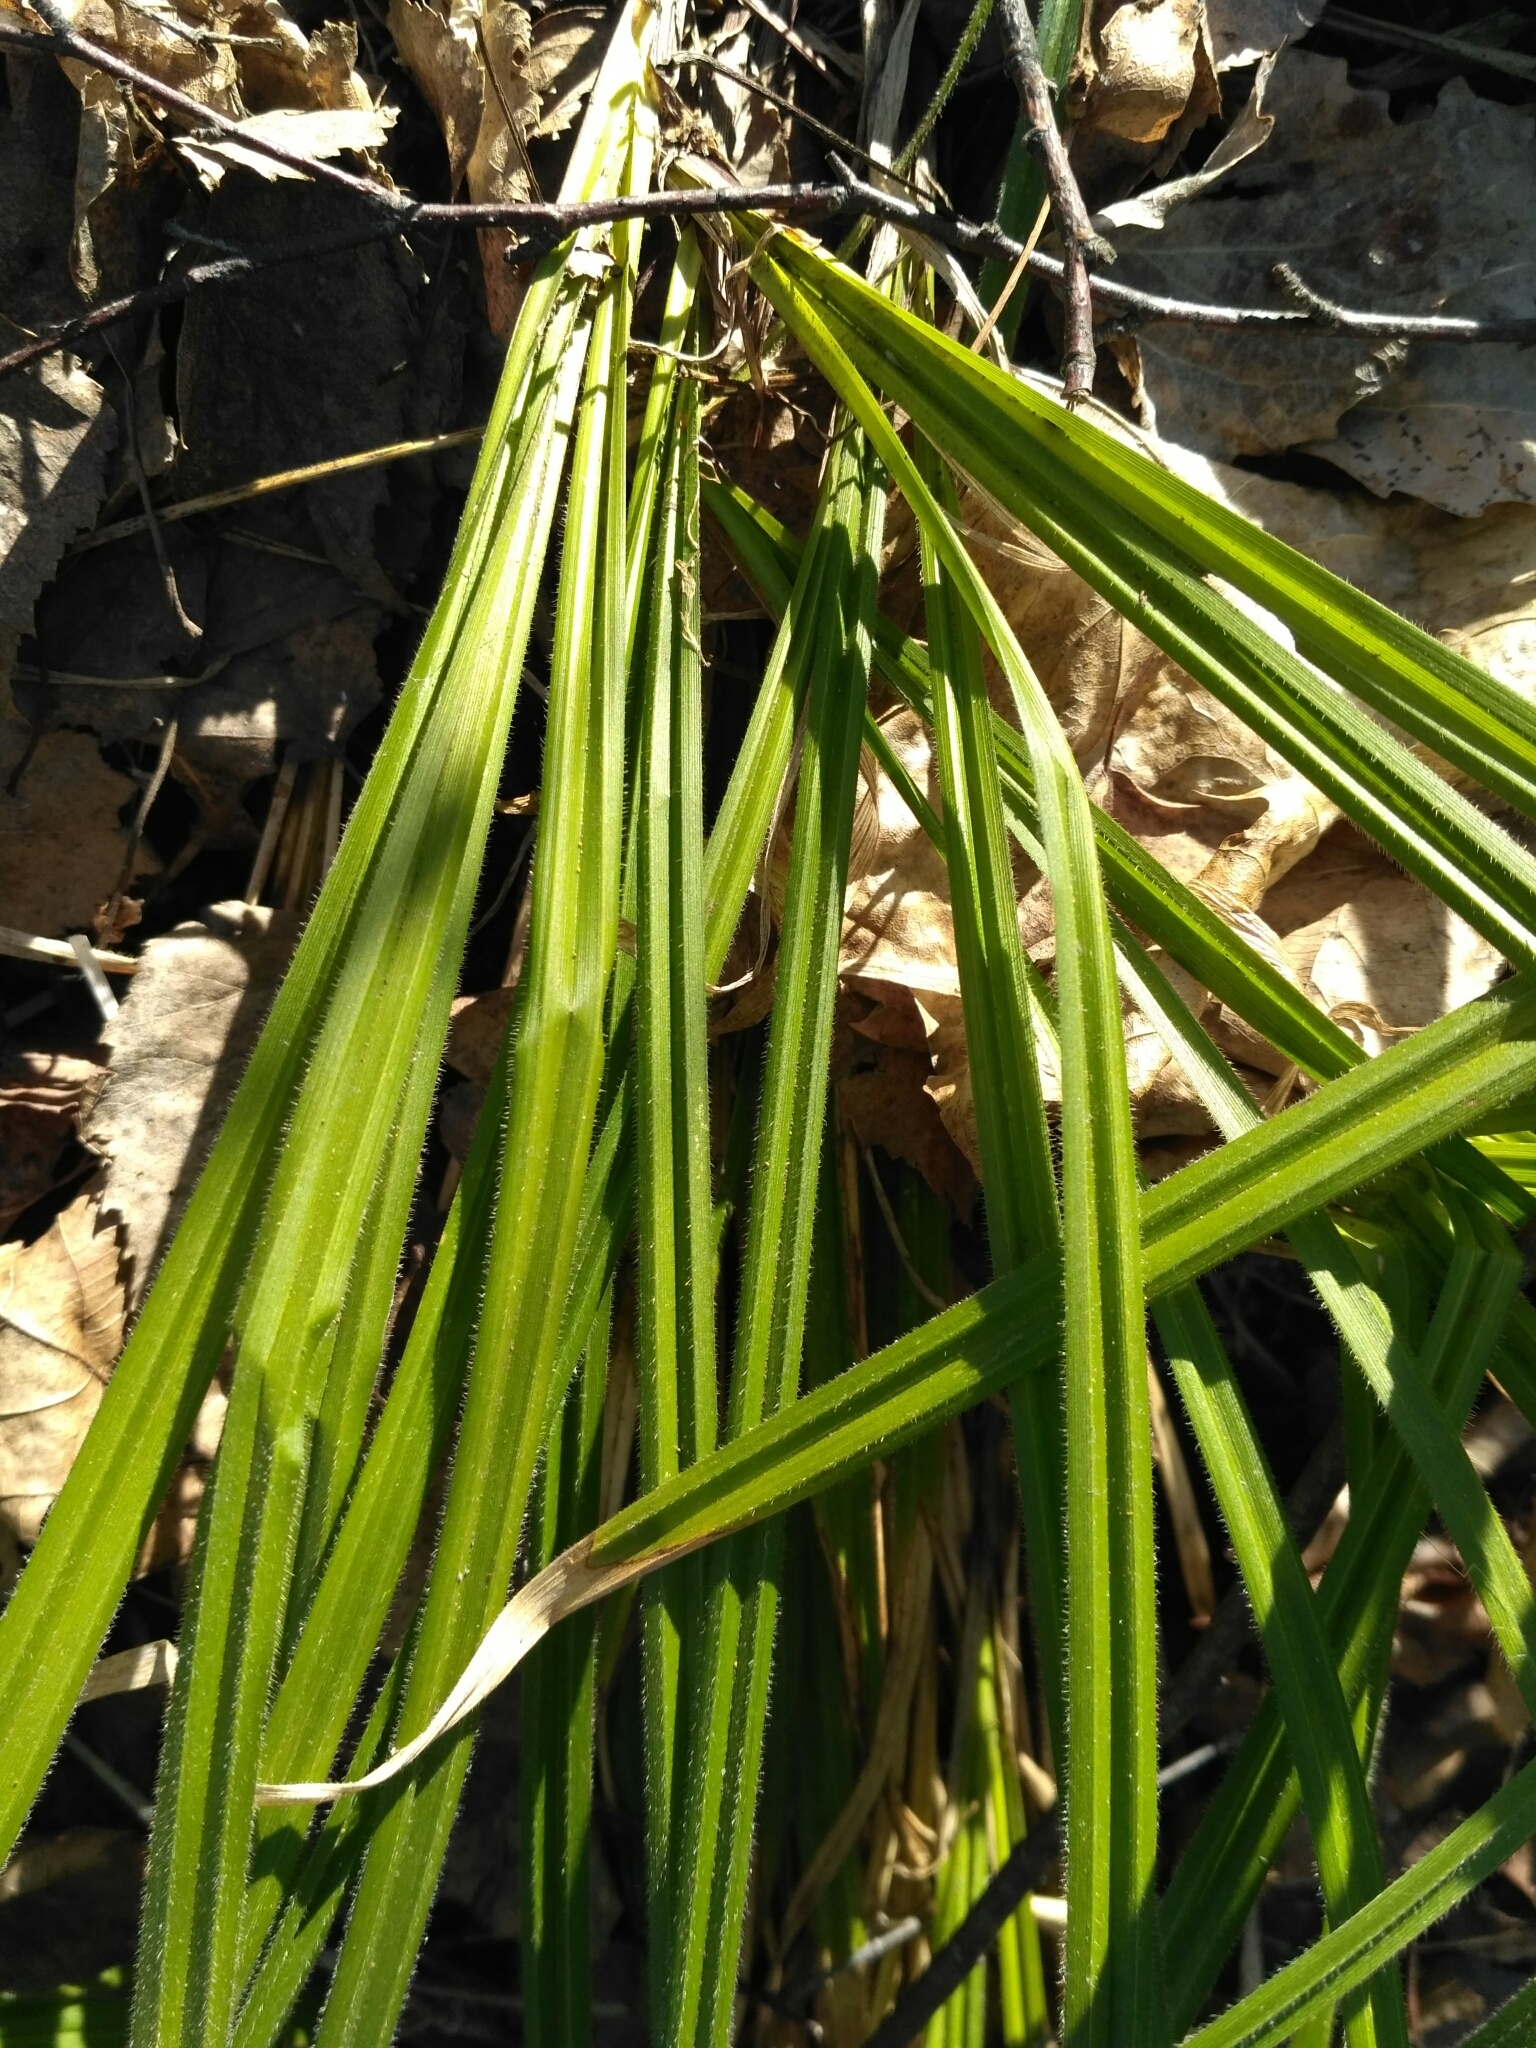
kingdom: Plantae
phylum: Tracheophyta
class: Liliopsida
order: Poales
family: Cyperaceae
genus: Carex
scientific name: Carex pilosa
